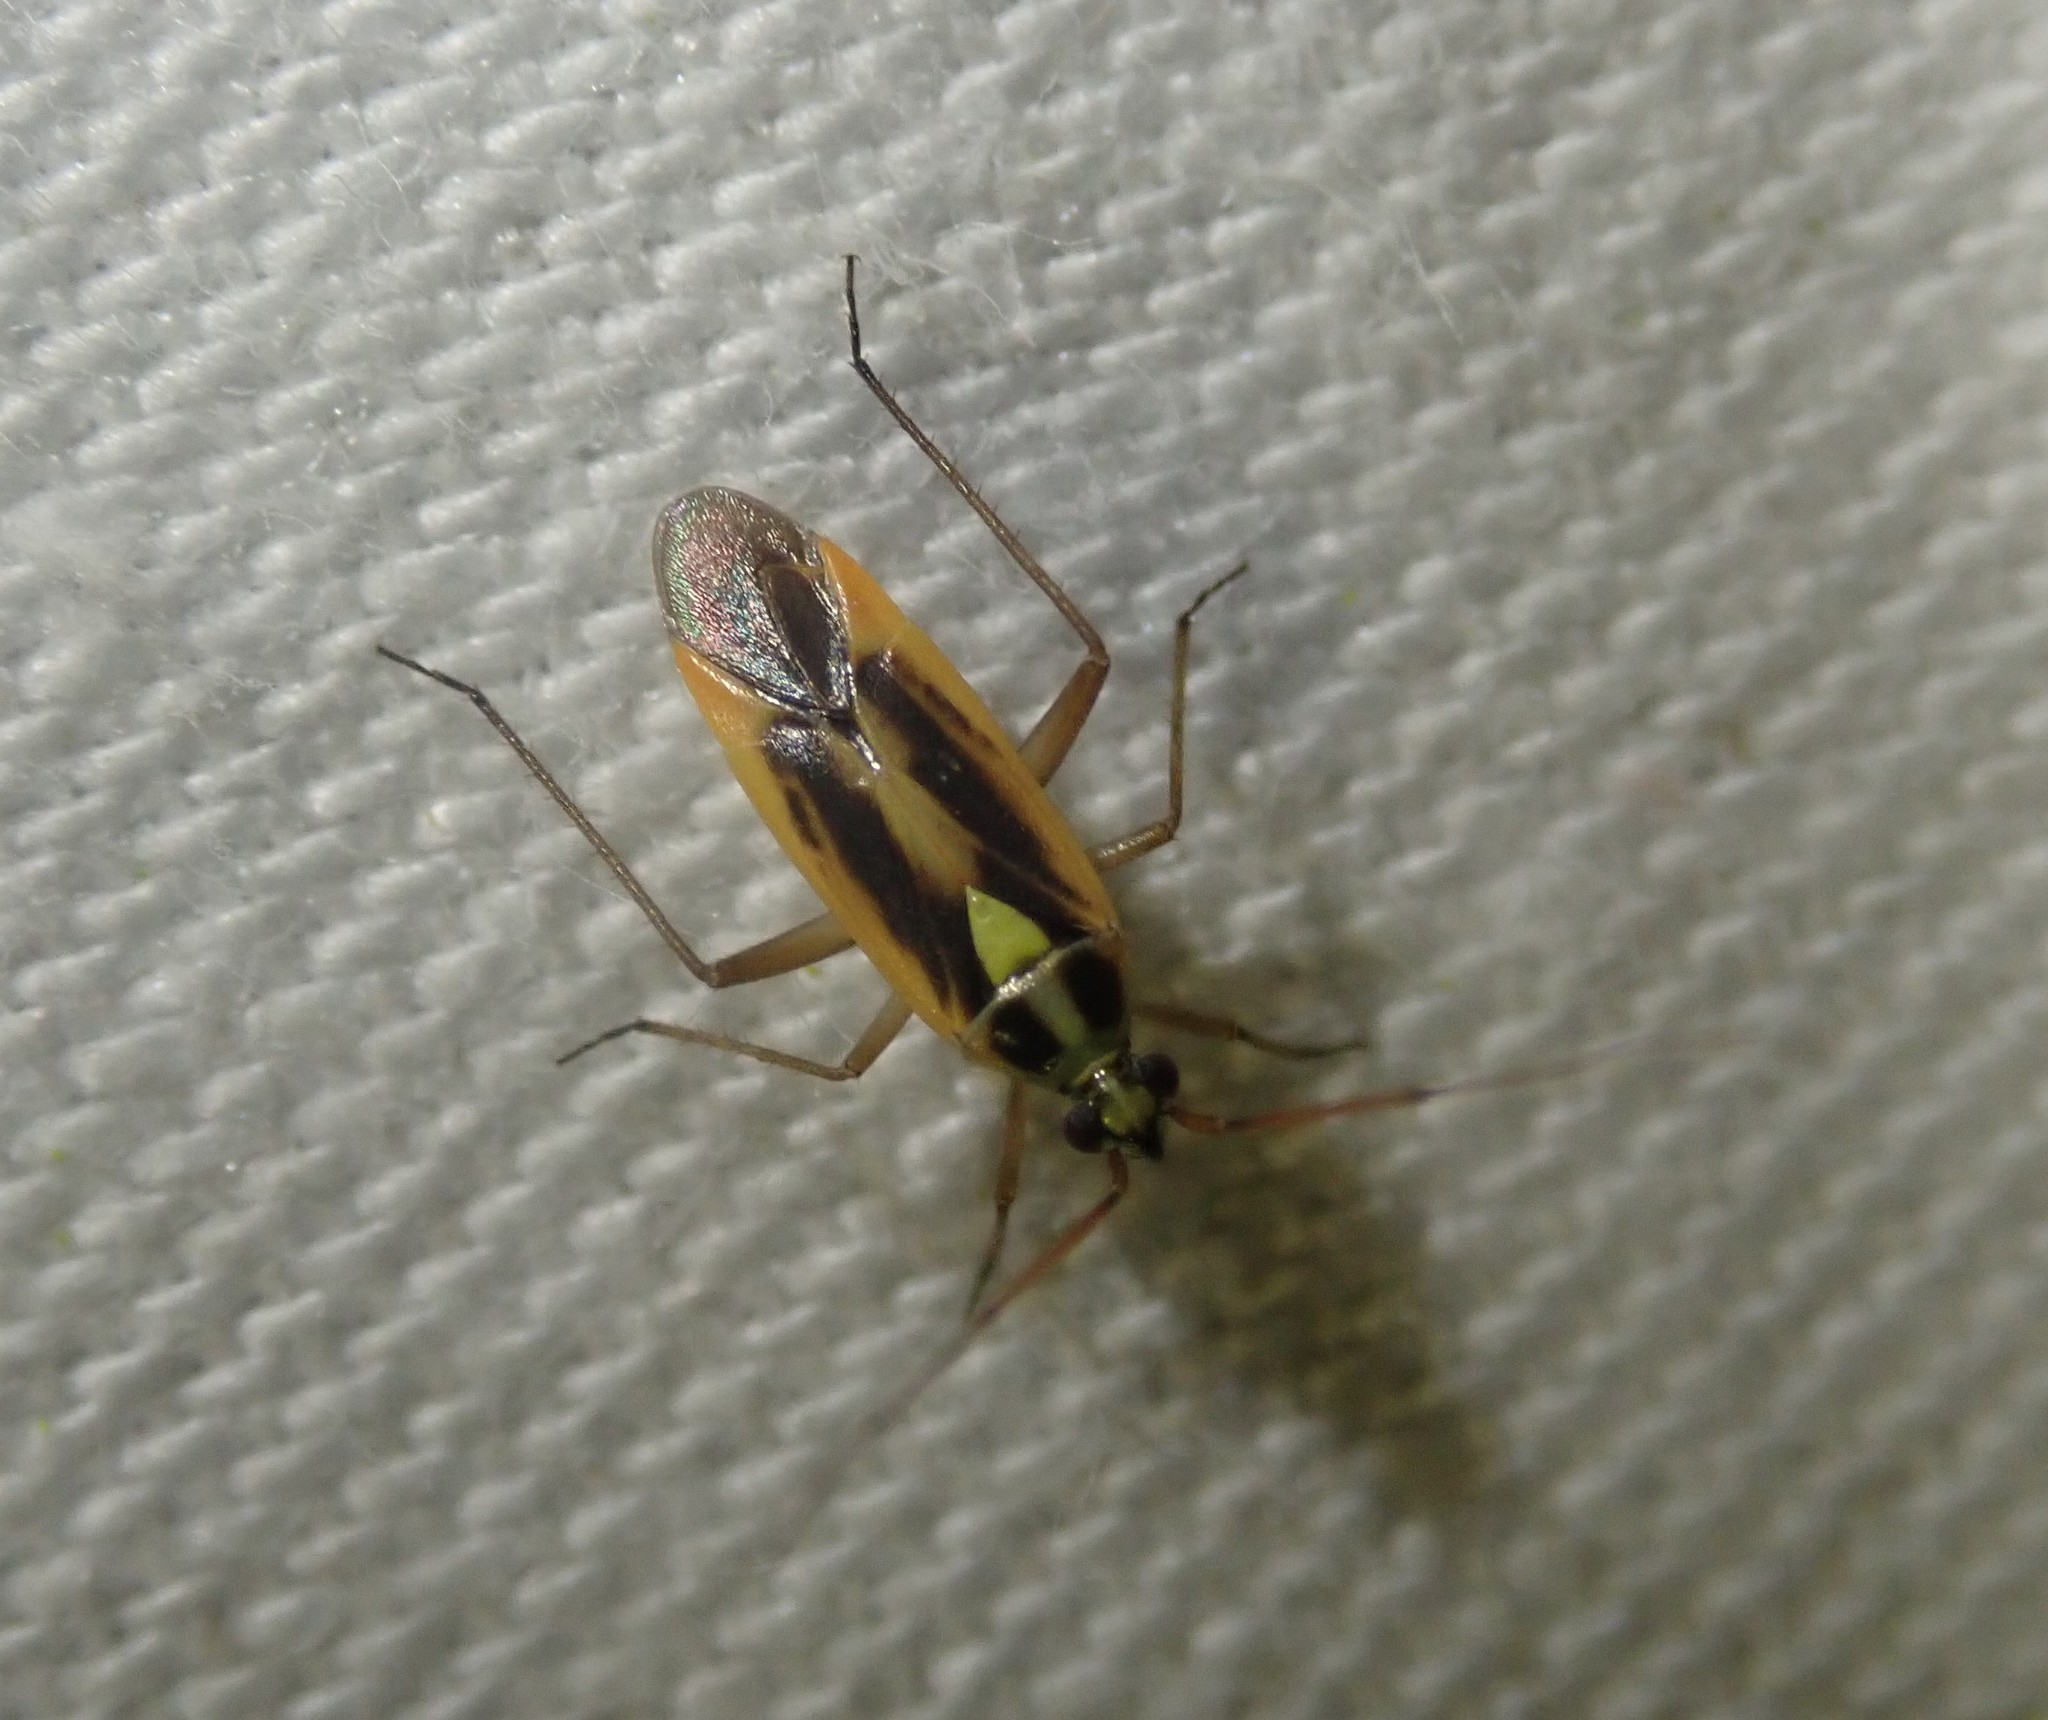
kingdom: Animalia
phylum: Arthropoda
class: Insecta
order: Hemiptera
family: Miridae
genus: Stenotus
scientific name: Stenotus binotatus
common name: Plant bug
